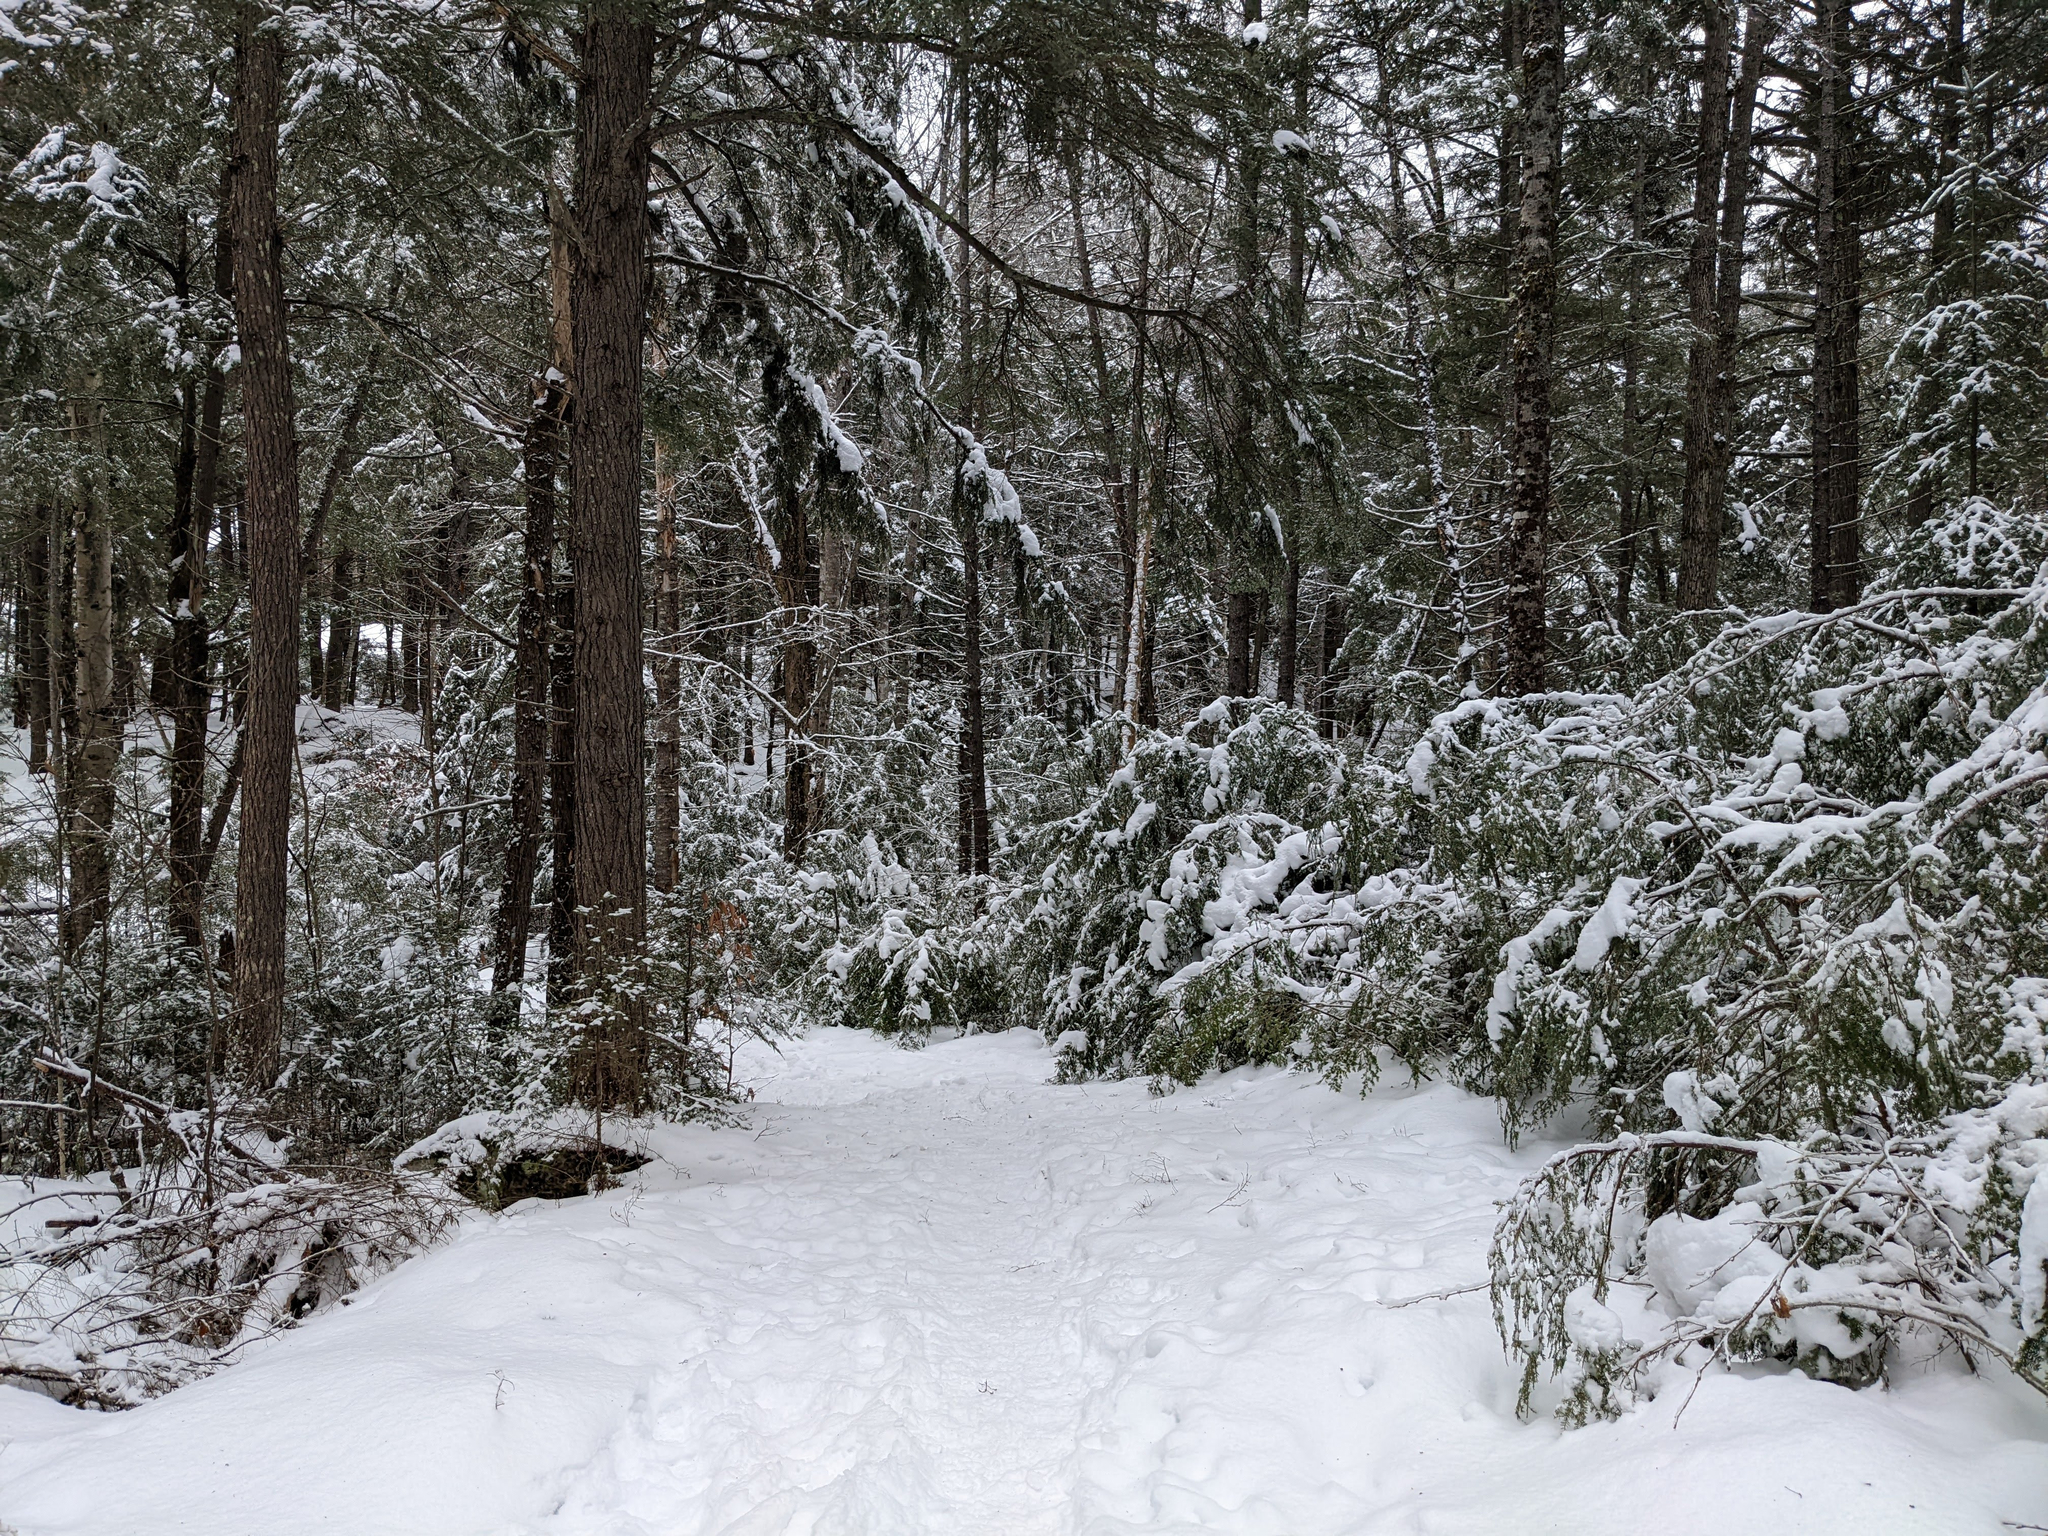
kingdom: Plantae
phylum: Tracheophyta
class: Pinopsida
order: Pinales
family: Pinaceae
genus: Tsuga
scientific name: Tsuga canadensis
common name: Eastern hemlock
